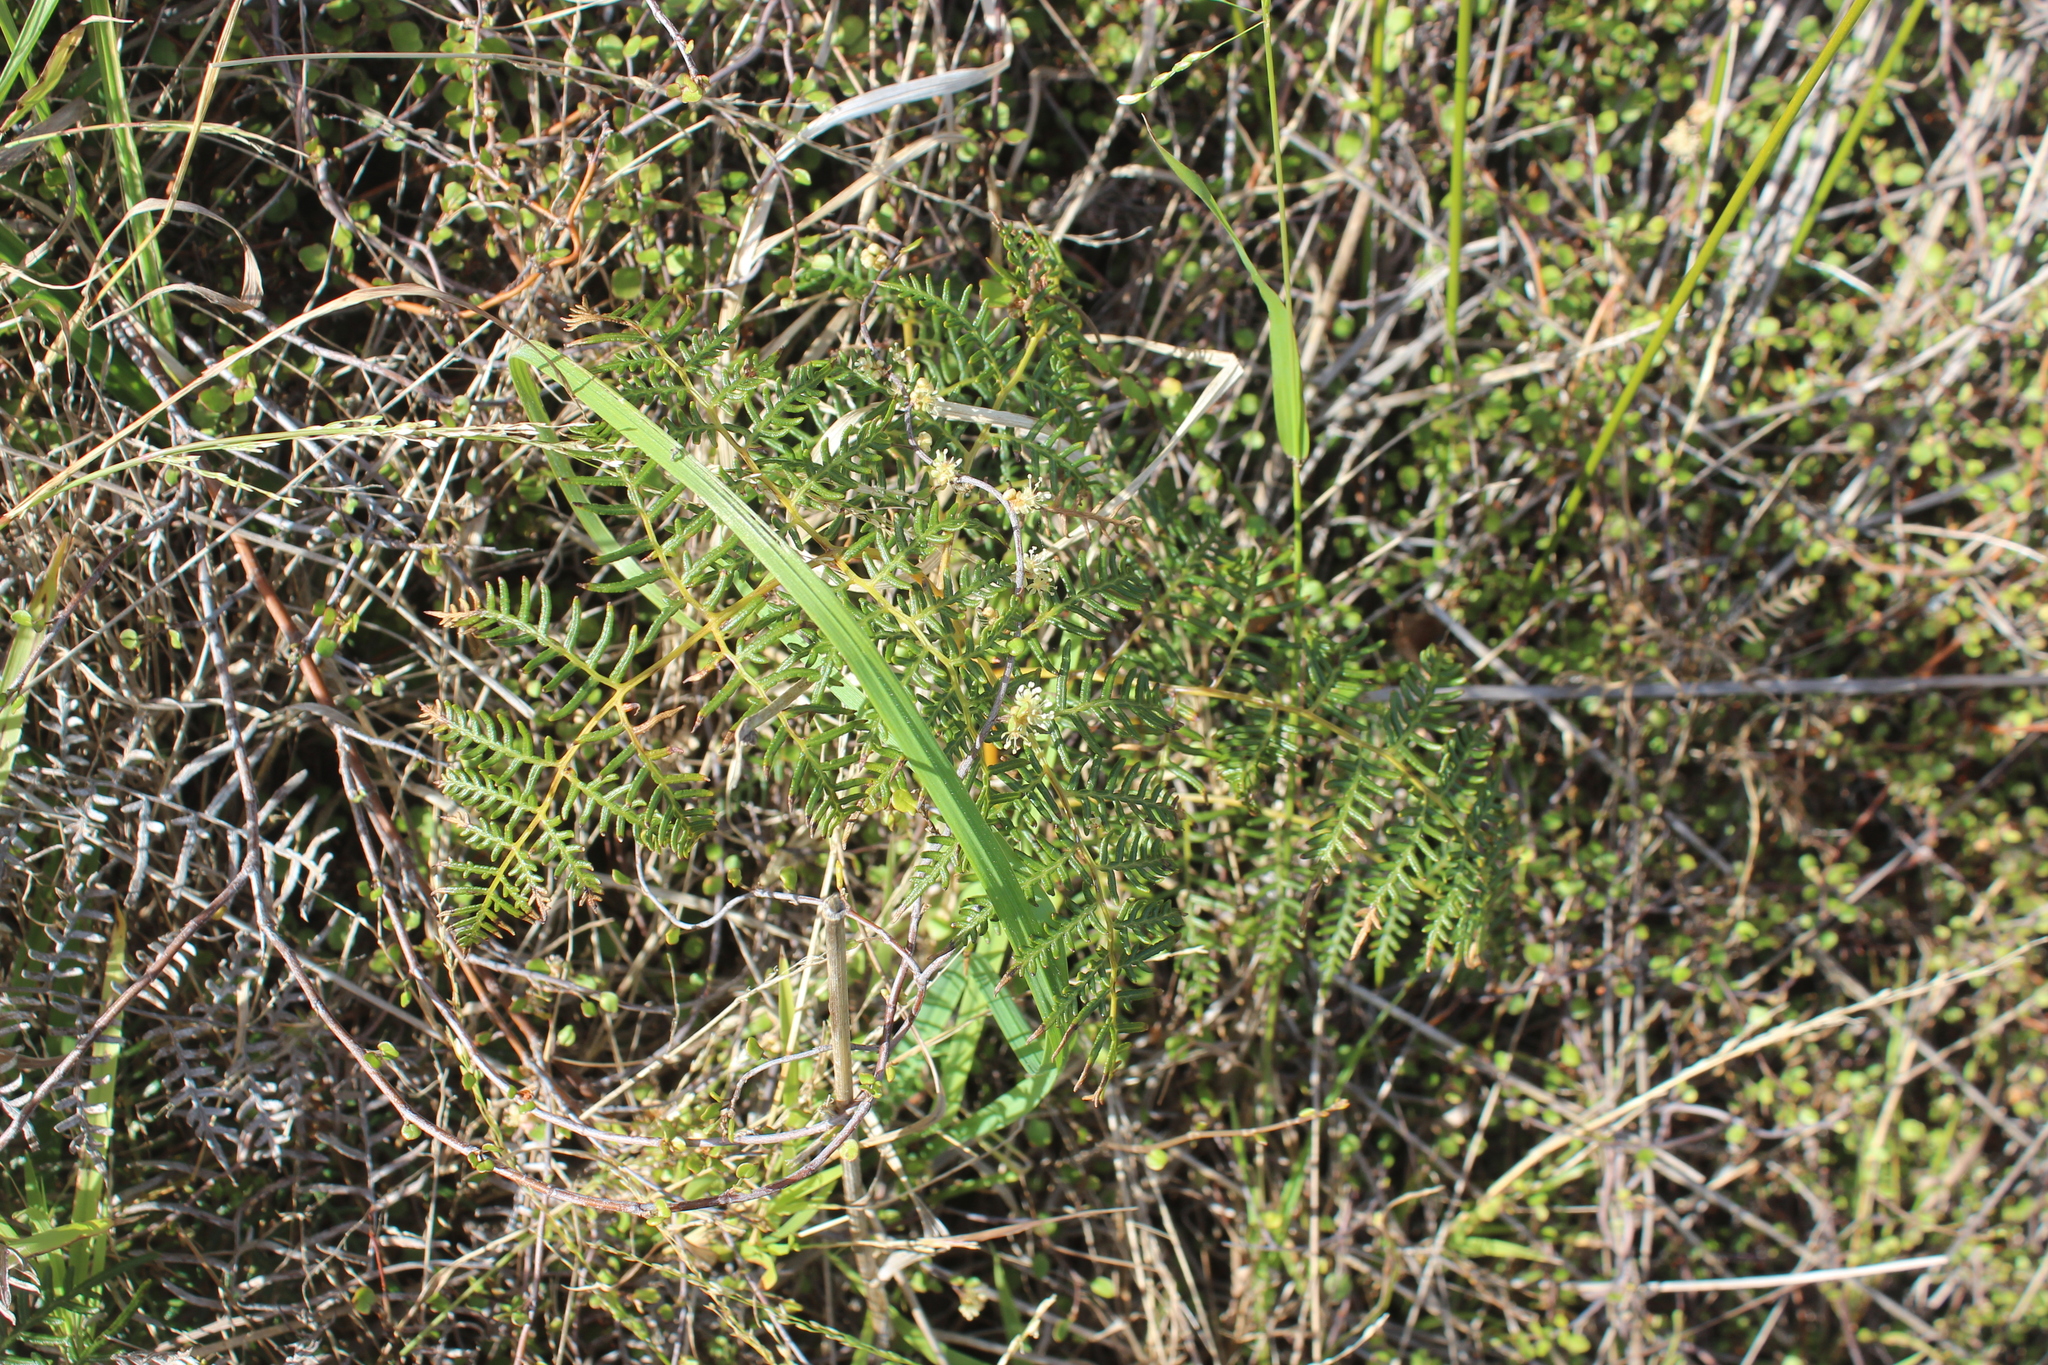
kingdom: Plantae
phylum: Tracheophyta
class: Polypodiopsida
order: Polypodiales
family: Dennstaedtiaceae
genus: Pteridium
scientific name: Pteridium esculentum
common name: Bracken fern
